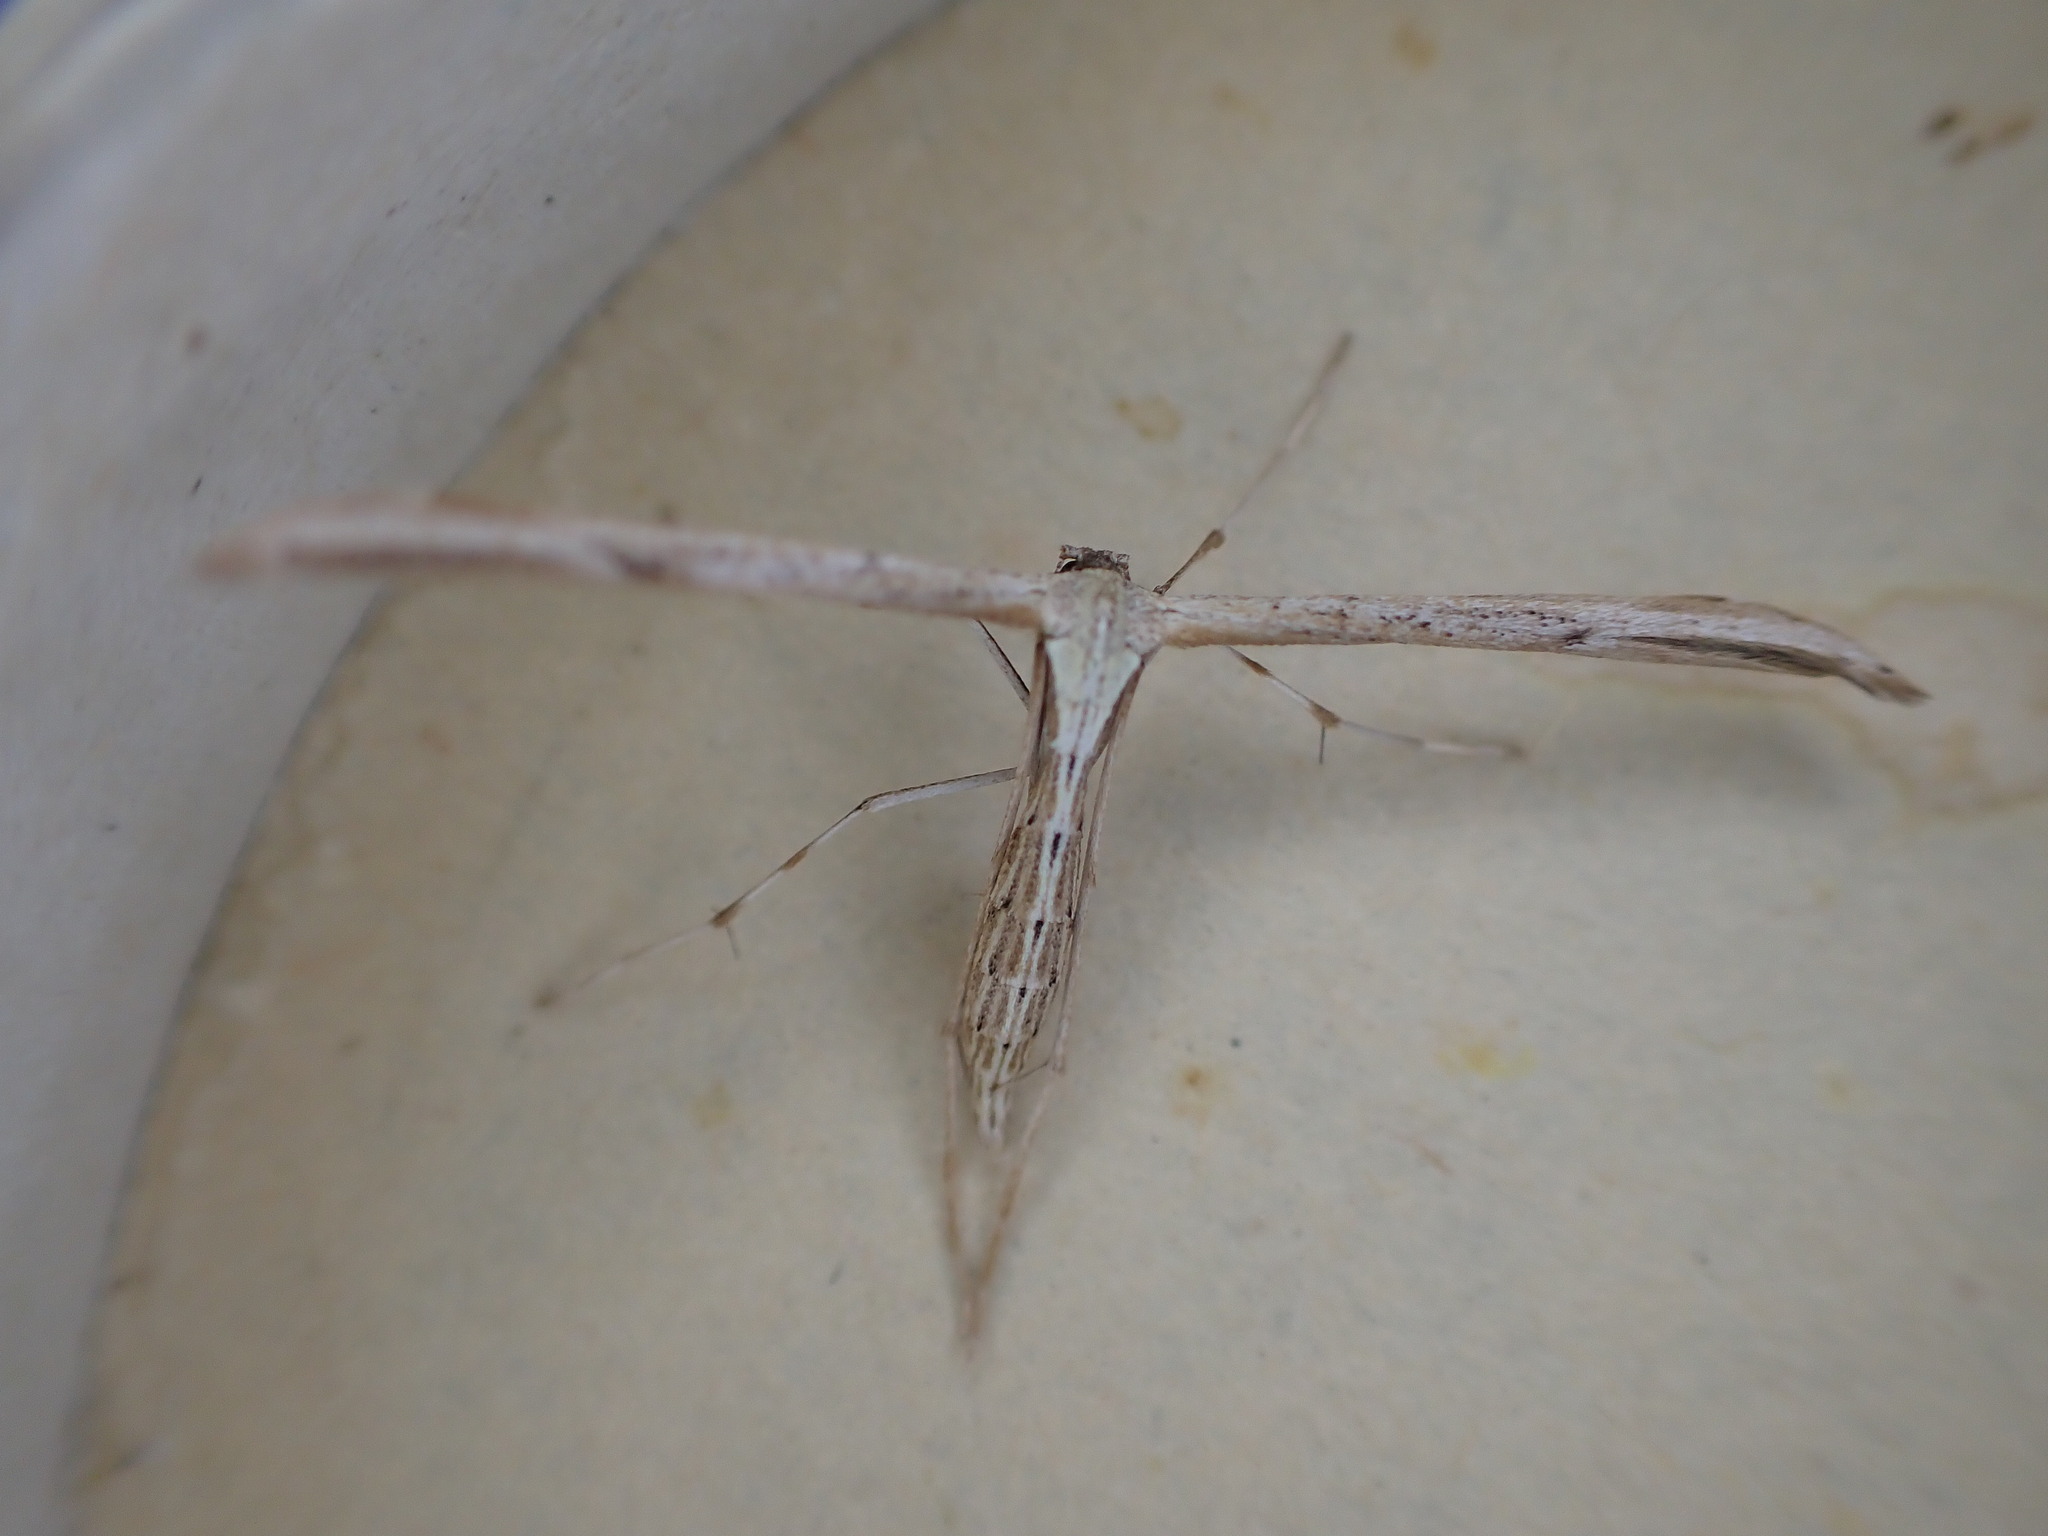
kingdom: Animalia
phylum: Arthropoda
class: Insecta
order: Lepidoptera
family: Pterophoridae
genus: Emmelina
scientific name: Emmelina monodactyla
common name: Common plume
